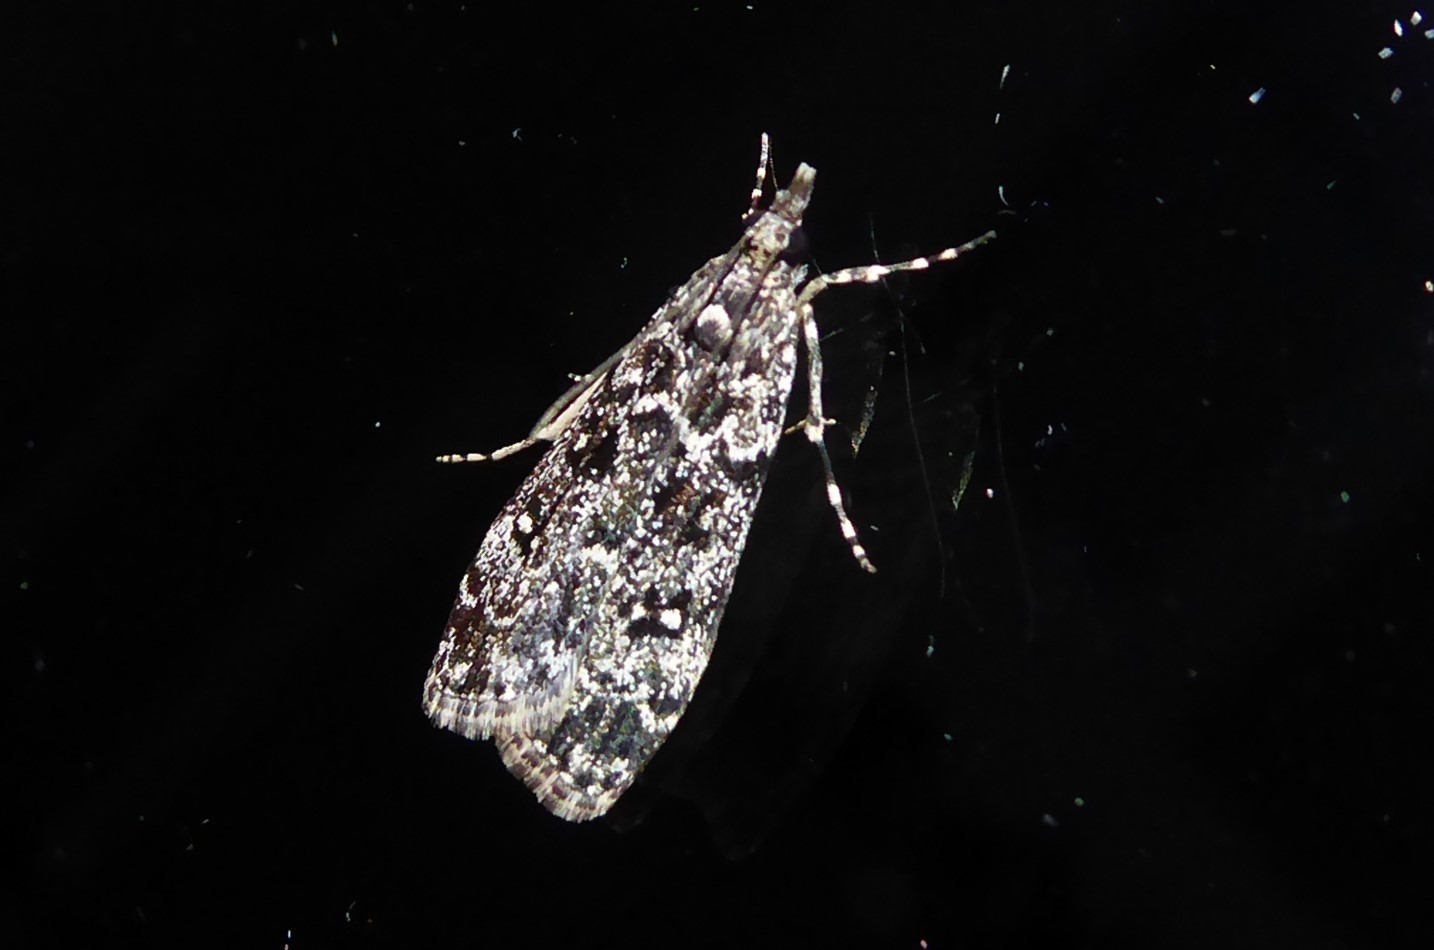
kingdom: Animalia
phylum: Arthropoda
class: Insecta
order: Lepidoptera
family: Crambidae
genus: Eudonia
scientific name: Eudonia philerga
